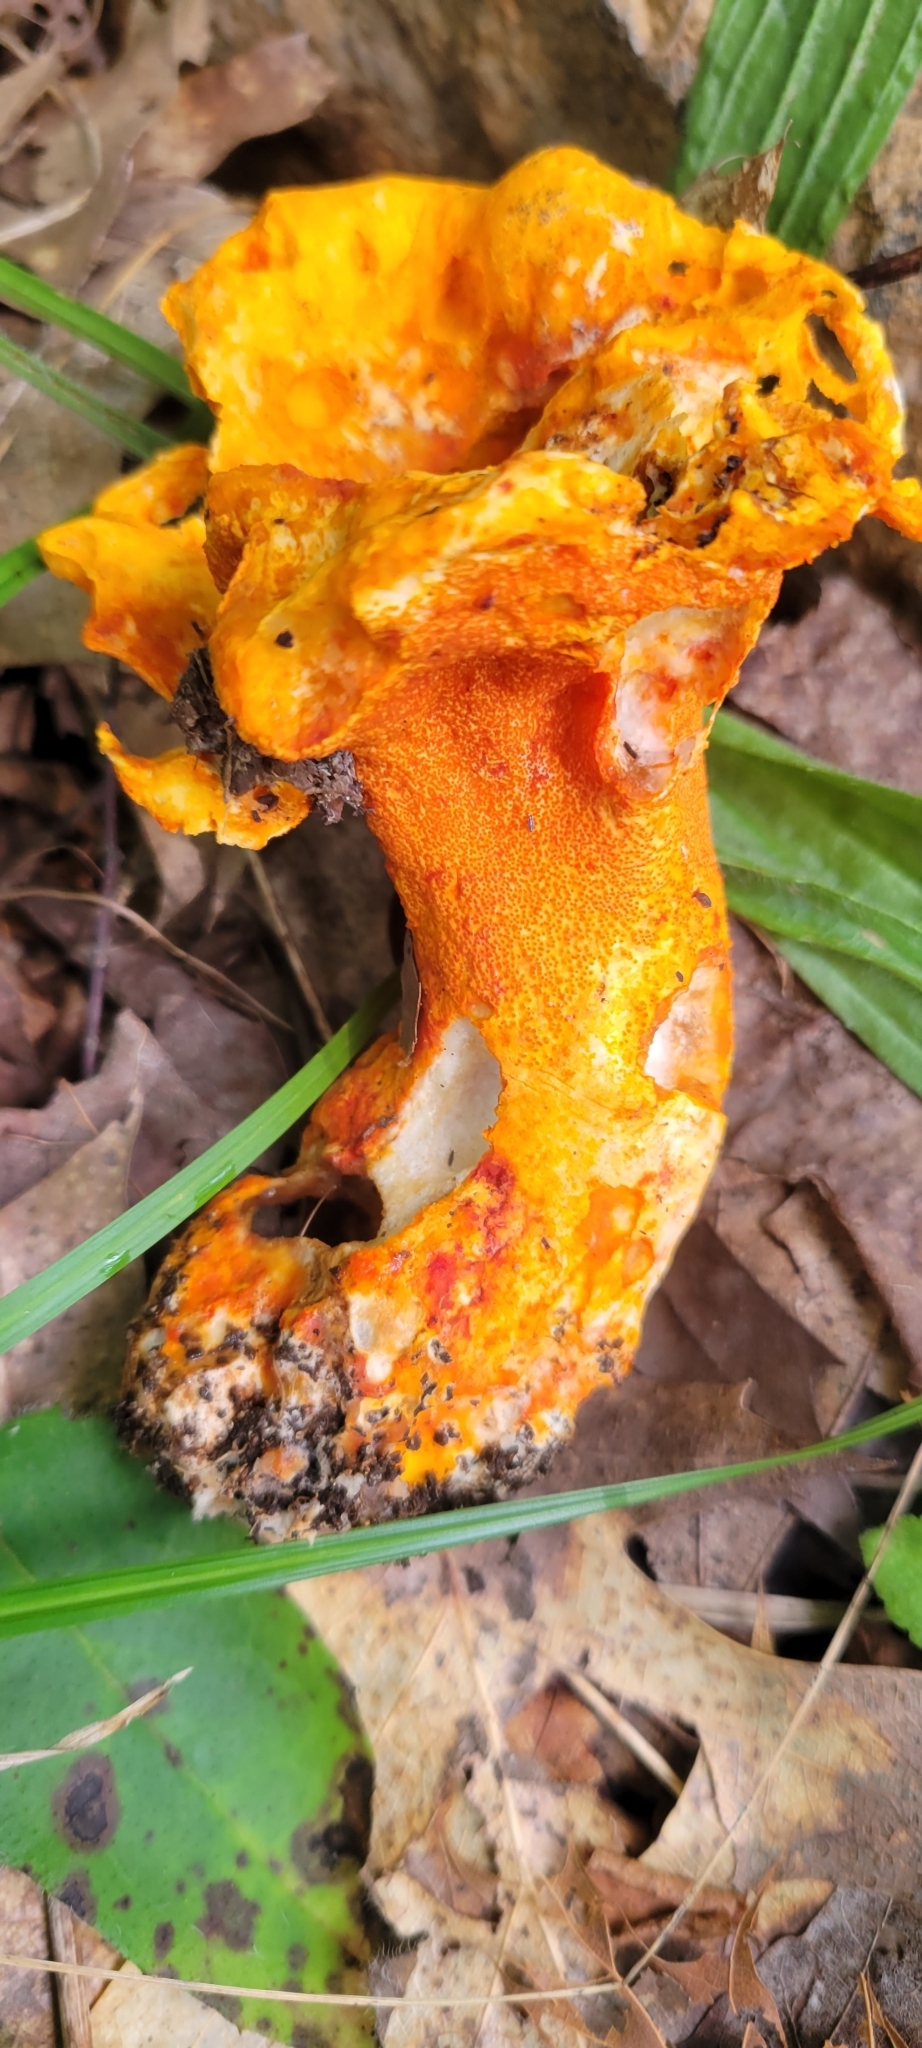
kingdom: Fungi
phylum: Ascomycota
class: Sordariomycetes
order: Hypocreales
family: Hypocreaceae
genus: Hypomyces
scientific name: Hypomyces lactifluorum
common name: Lobster mushroom
